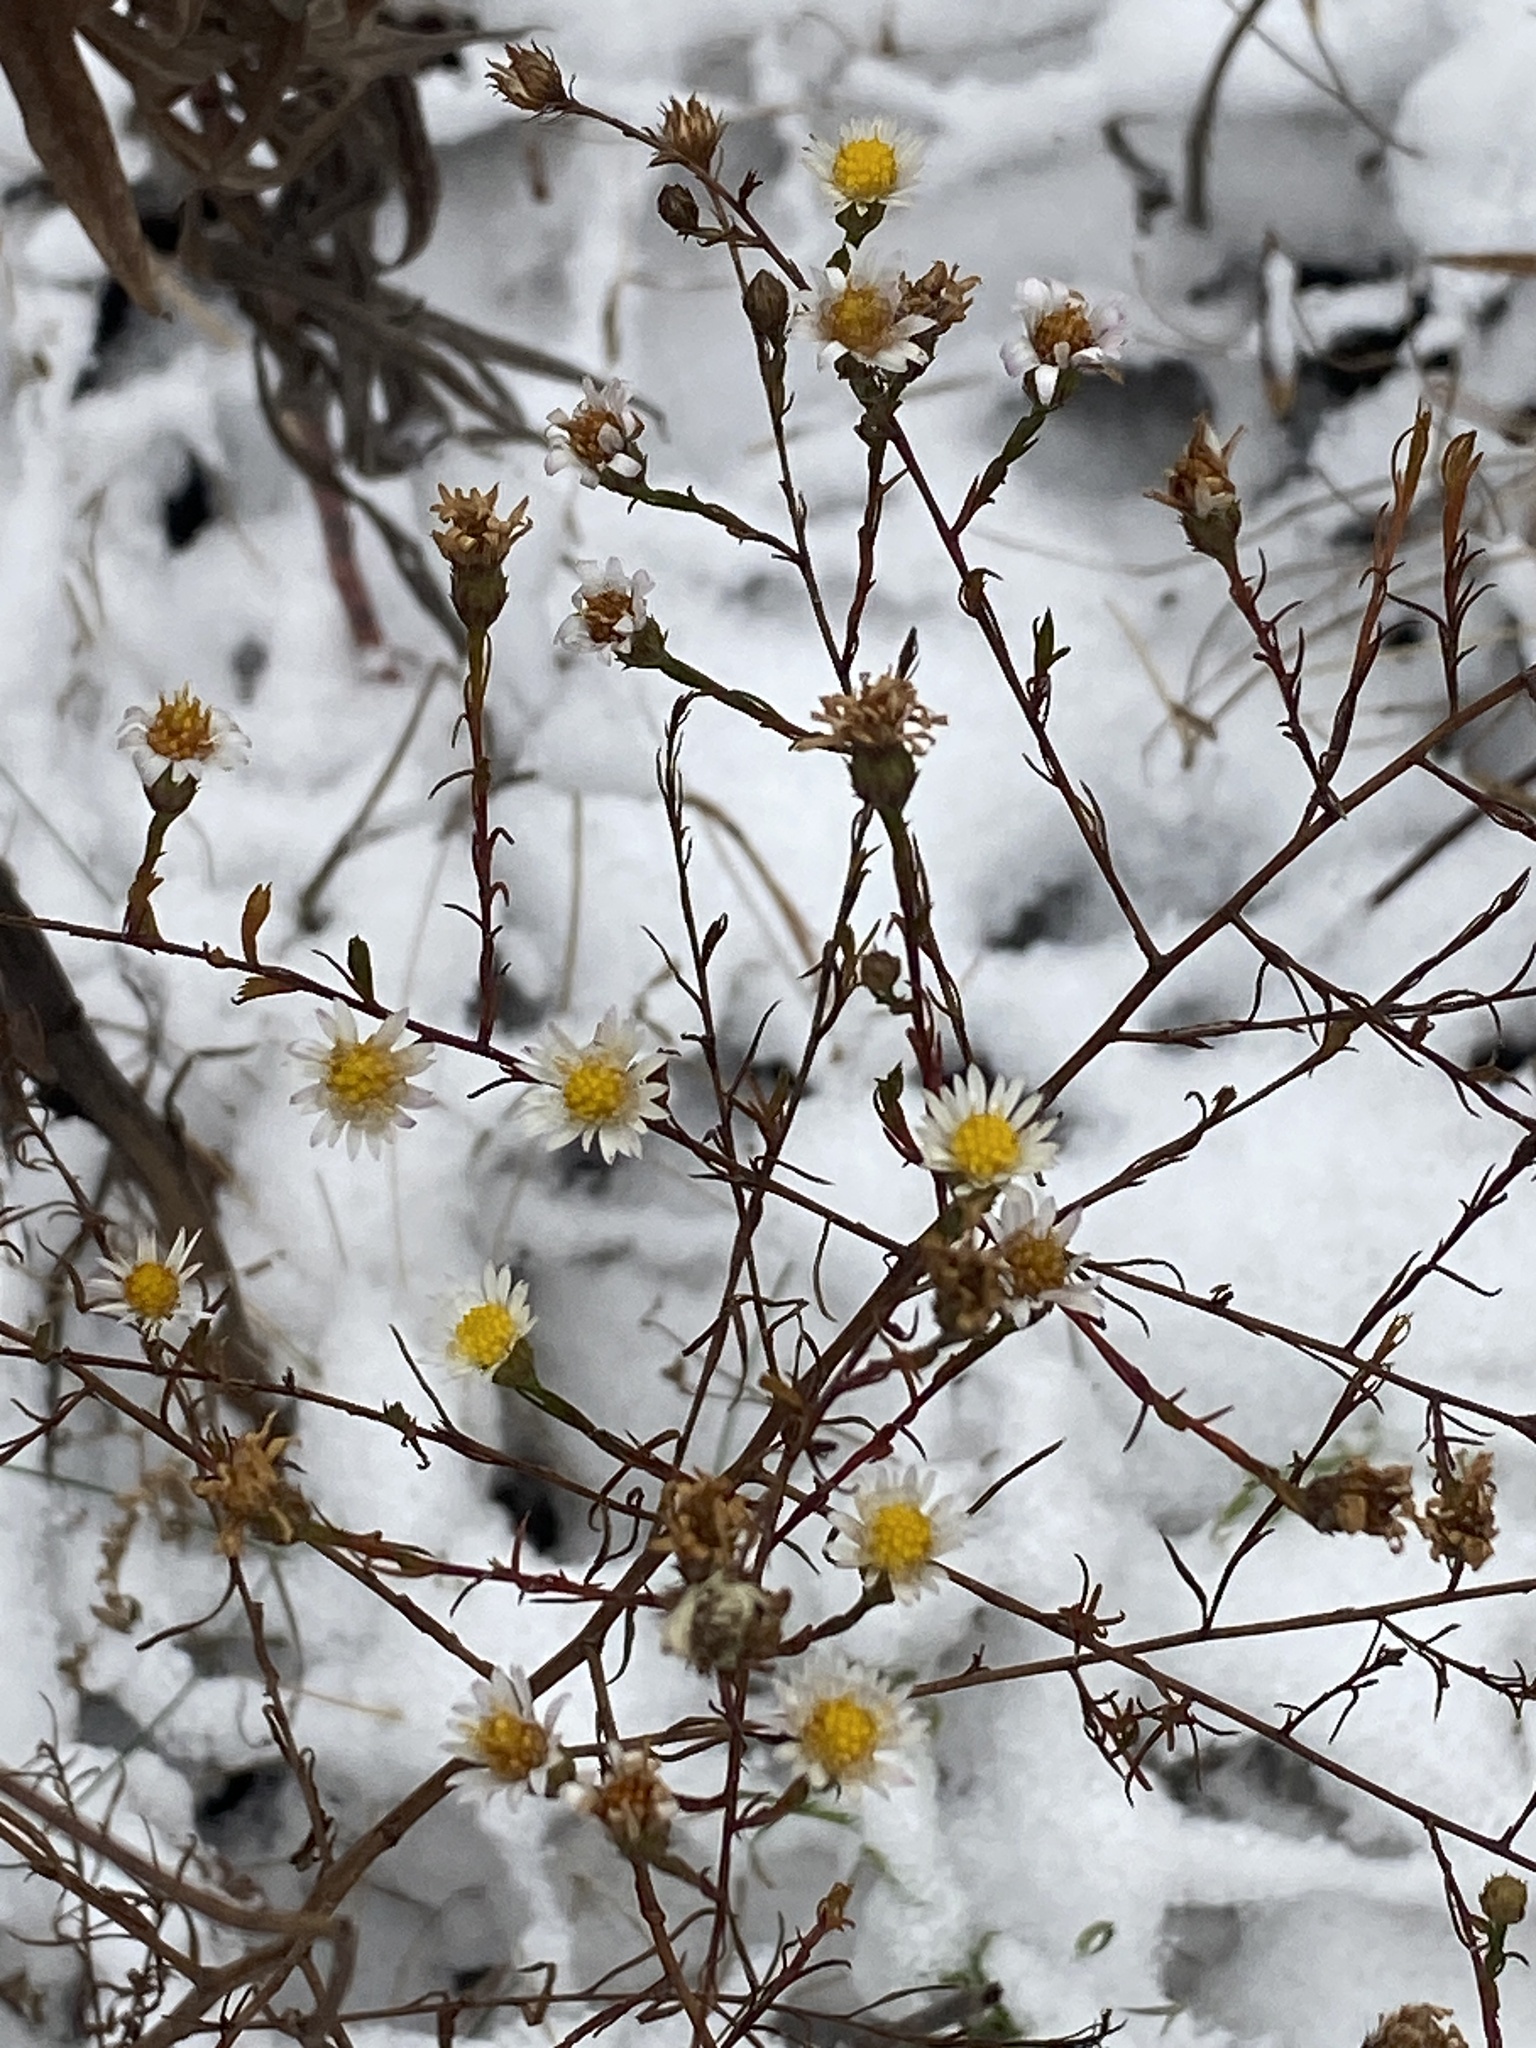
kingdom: Plantae
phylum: Tracheophyta
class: Magnoliopsida
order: Asterales
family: Asteraceae
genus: Symphyotrichum
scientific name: Symphyotrichum pilosum
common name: Awl aster
